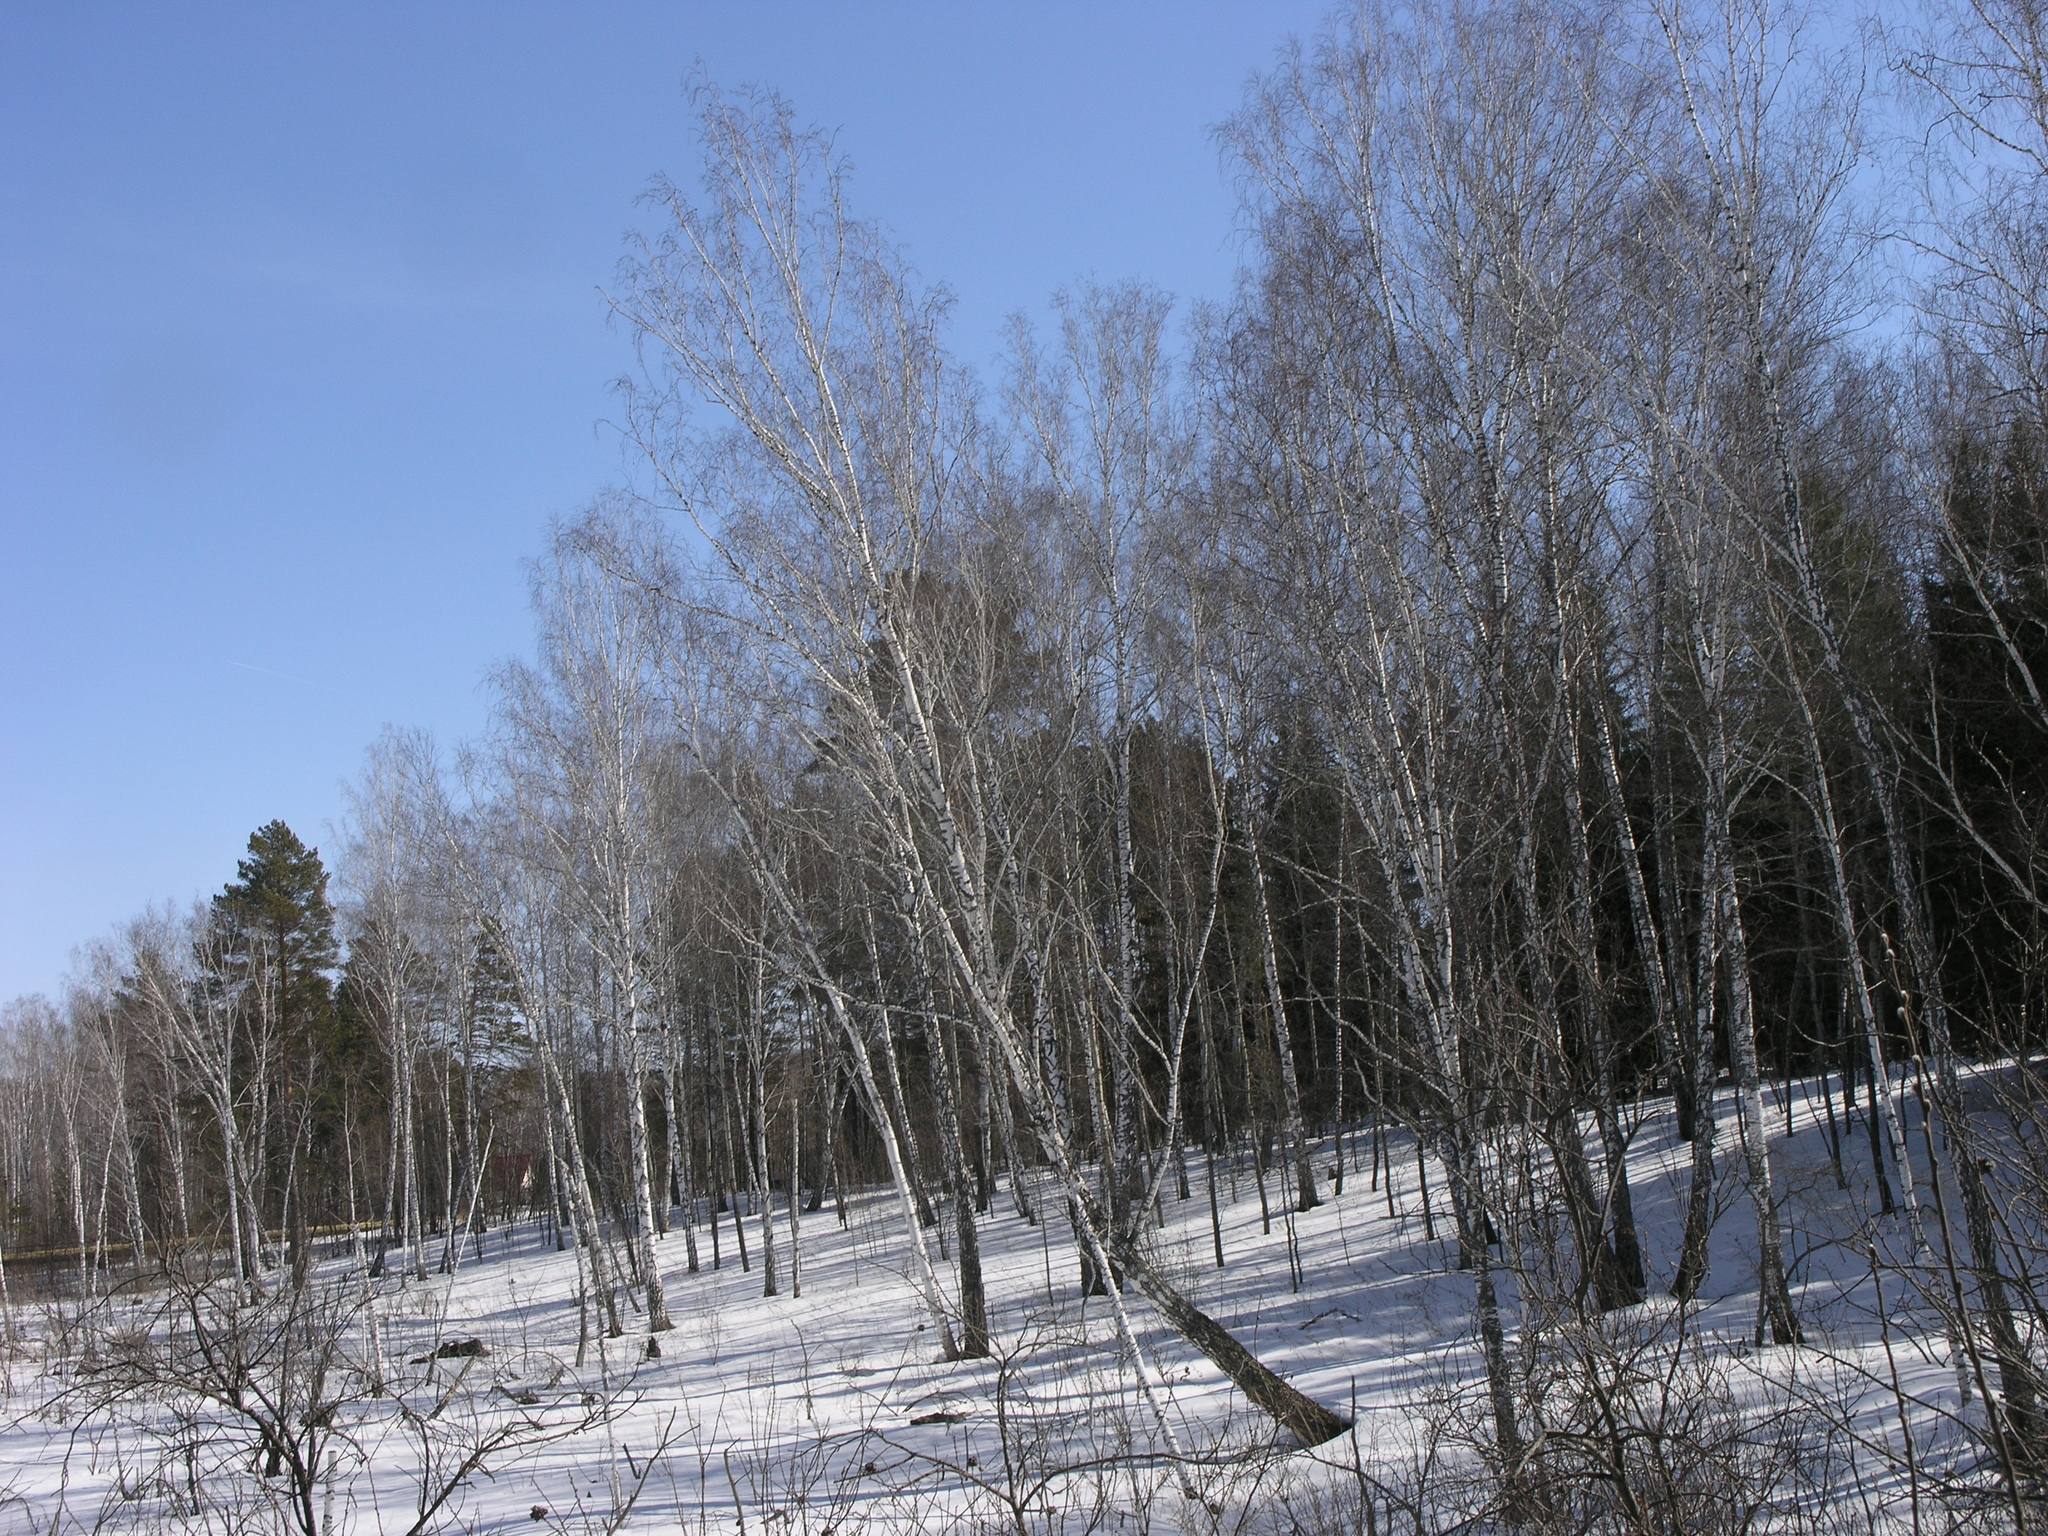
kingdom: Plantae
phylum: Tracheophyta
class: Magnoliopsida
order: Fagales
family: Betulaceae
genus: Betula
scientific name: Betula pendula
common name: Silver birch
